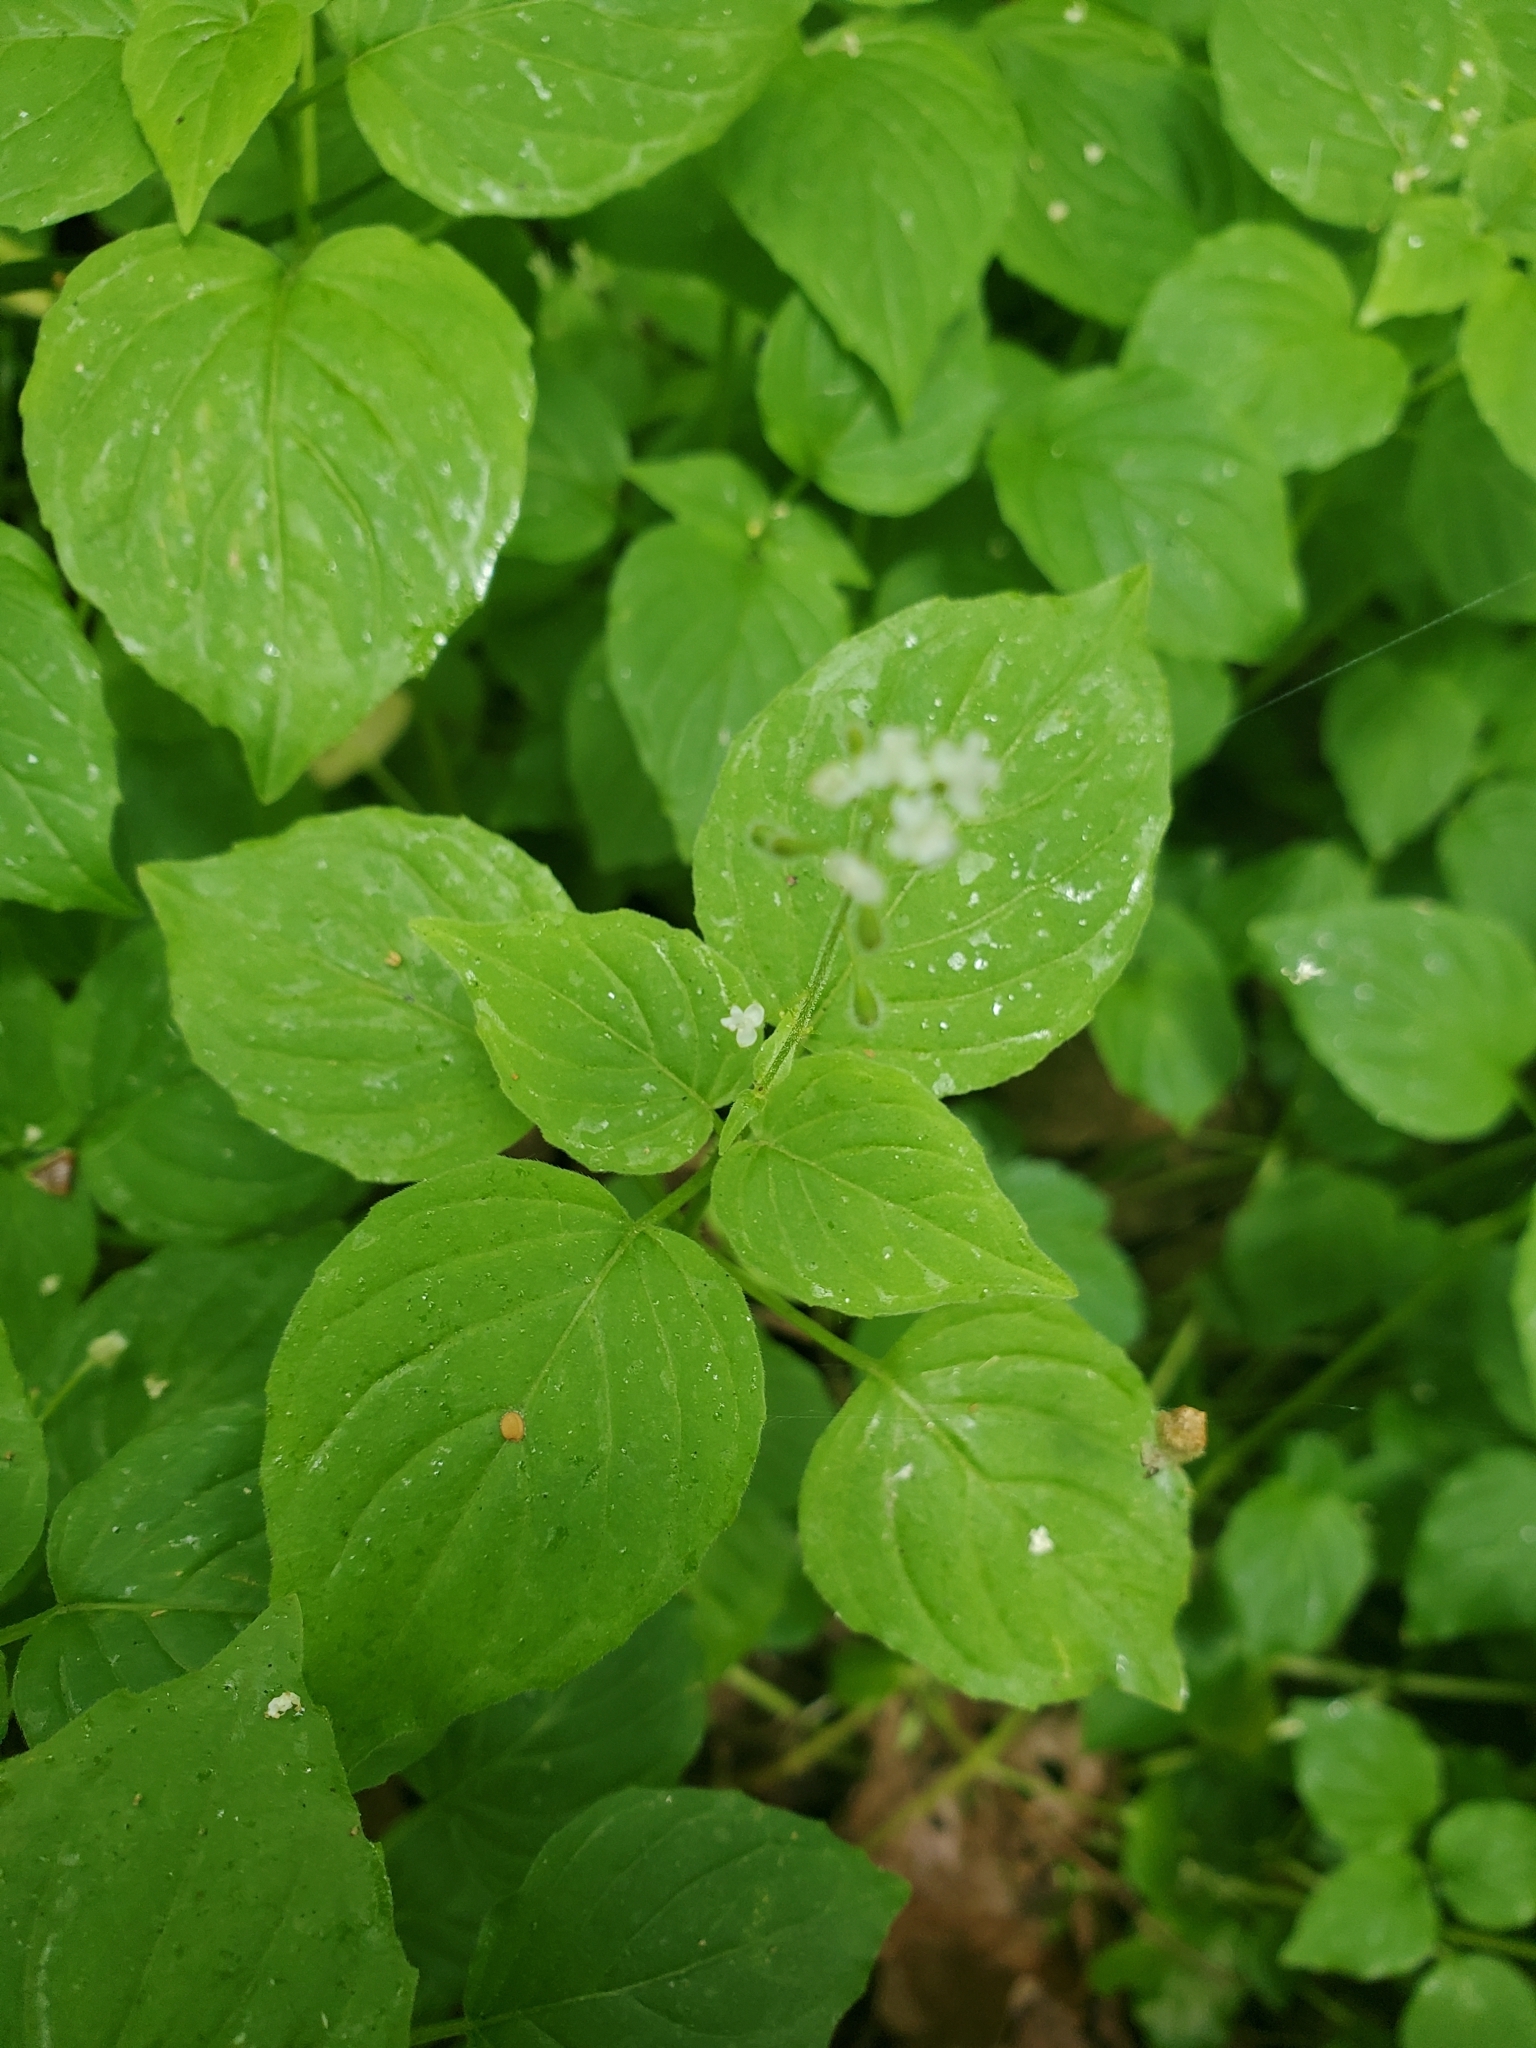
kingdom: Plantae
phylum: Tracheophyta
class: Magnoliopsida
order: Myrtales
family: Onagraceae
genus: Circaea
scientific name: Circaea alpina
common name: Alpine enchanter's-nightshade
